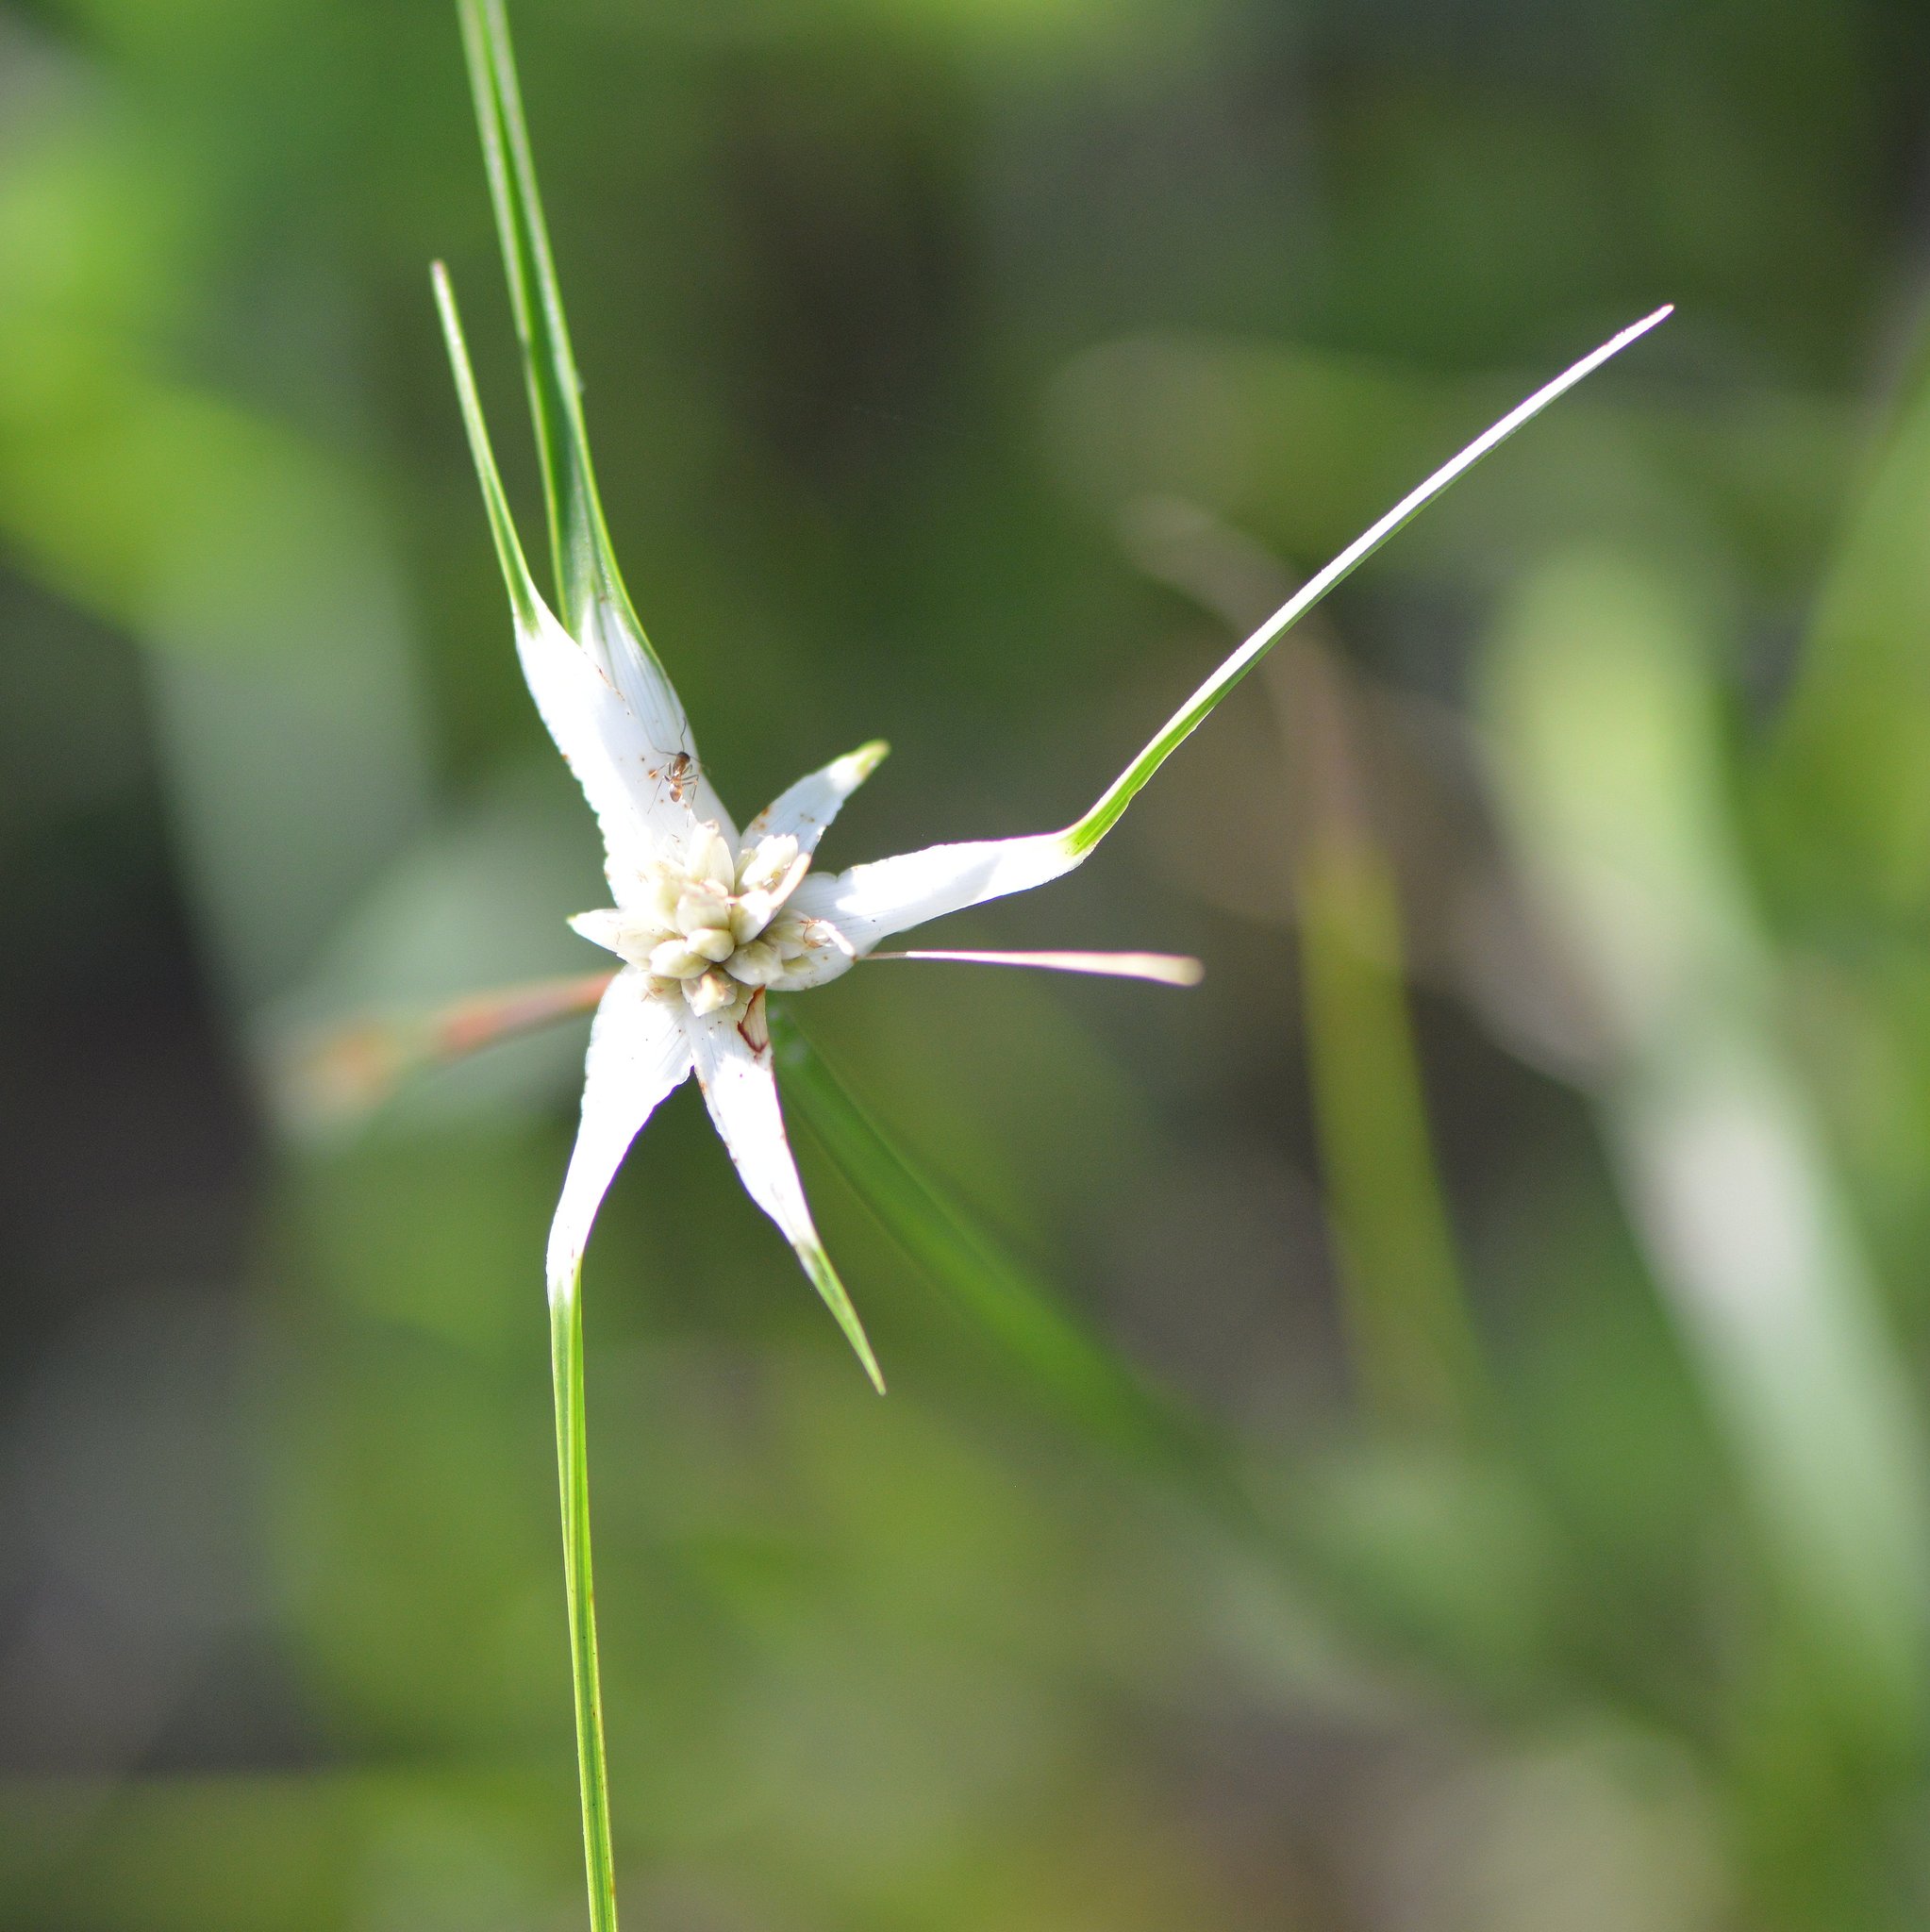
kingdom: Plantae
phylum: Tracheophyta
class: Liliopsida
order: Poales
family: Cyperaceae
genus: Rhynchospora
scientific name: Rhynchospora colorata
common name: Star sedge
